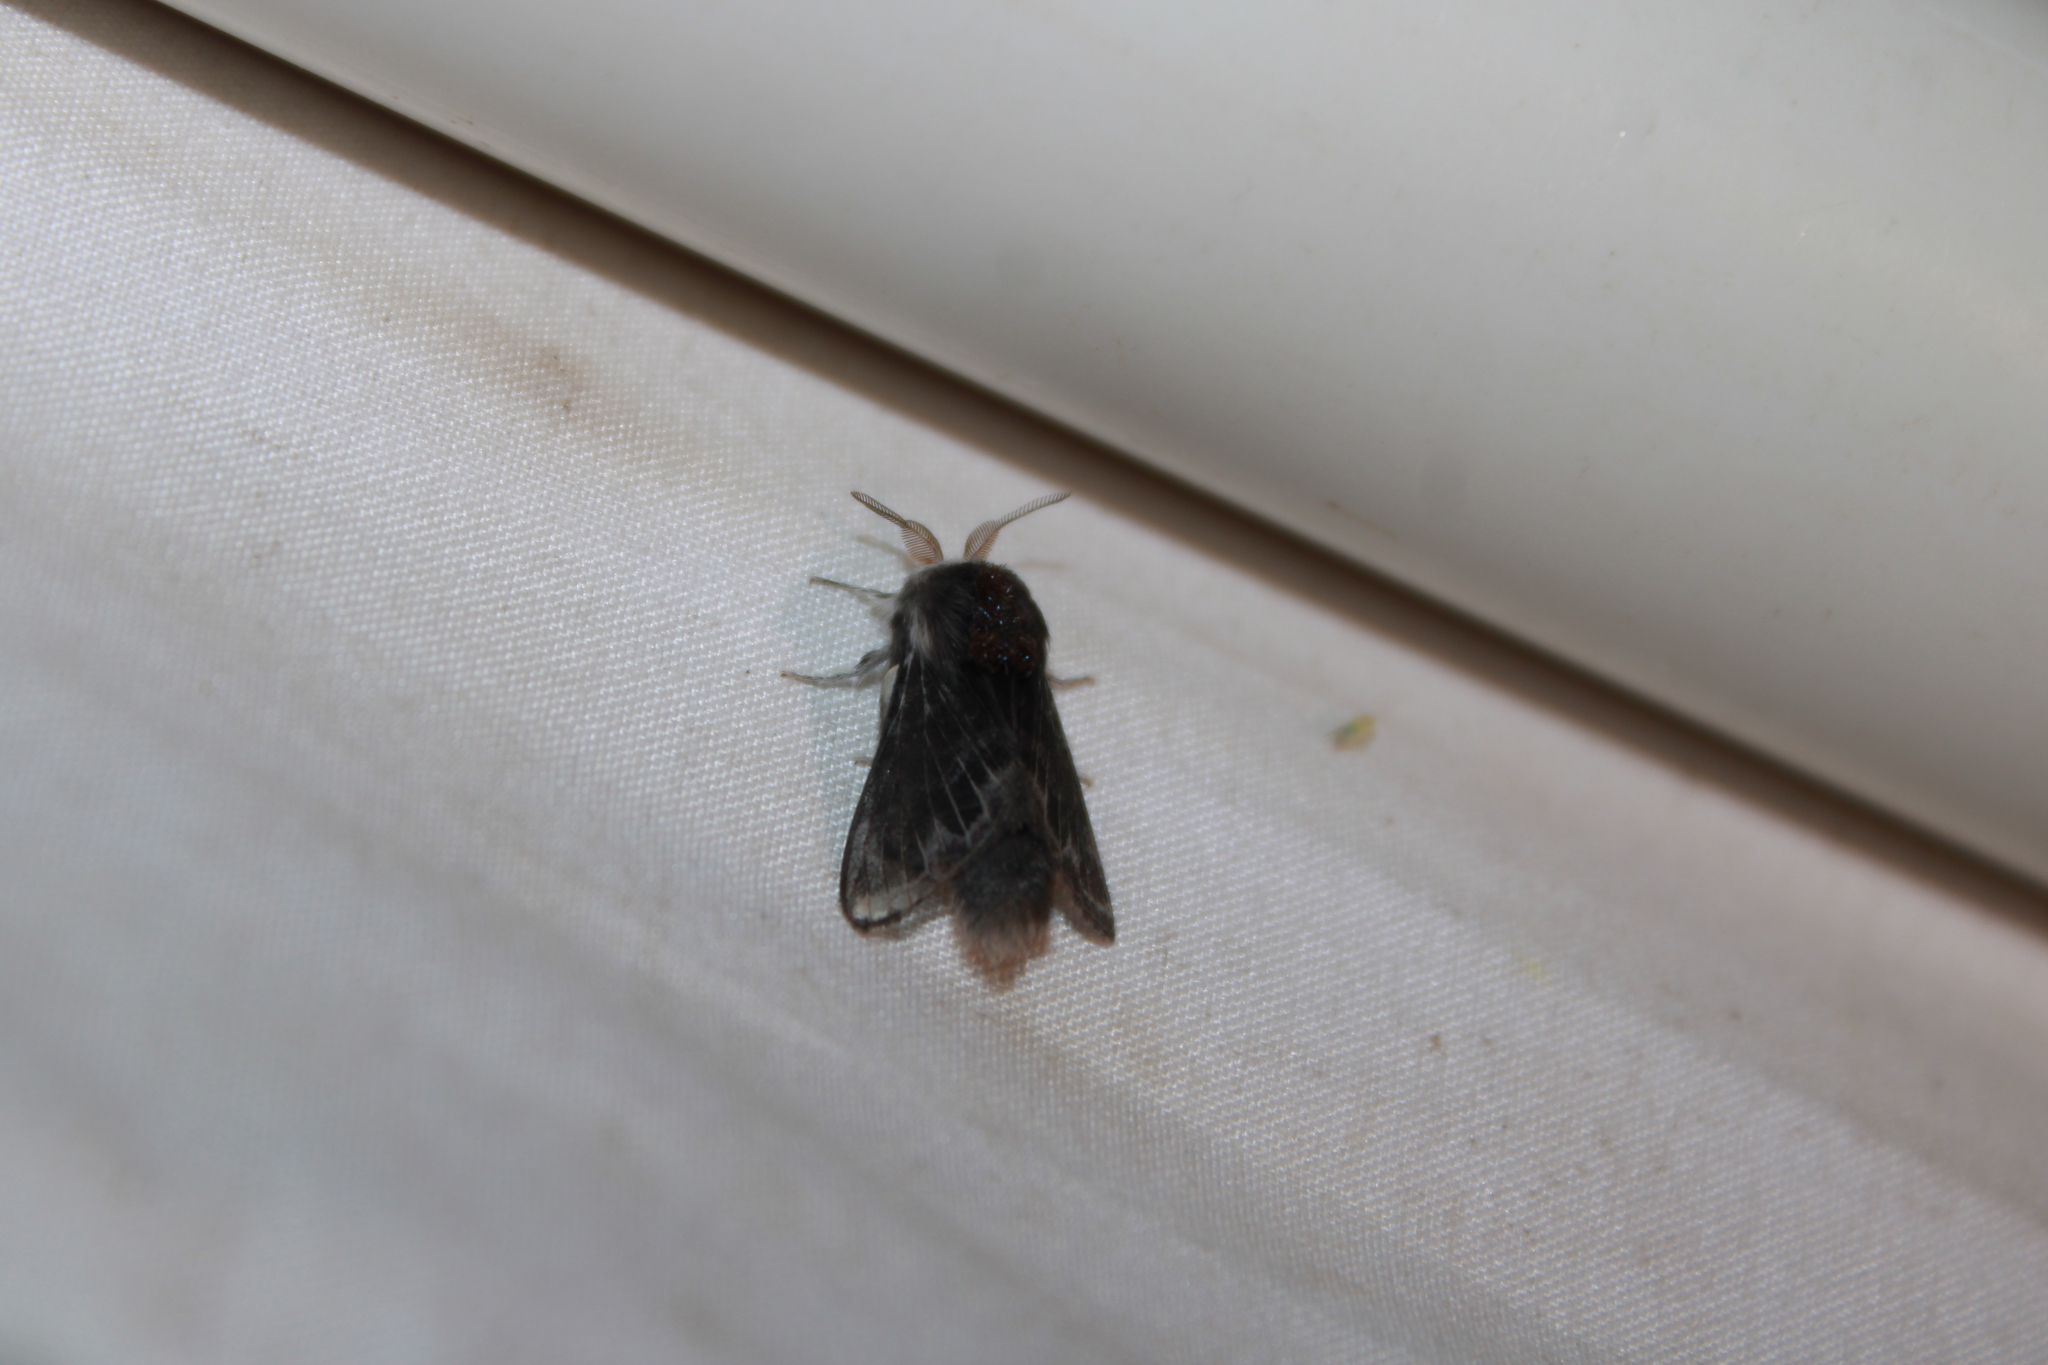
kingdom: Animalia
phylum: Arthropoda
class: Insecta
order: Lepidoptera
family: Lasiocampidae
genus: Tolype
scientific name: Tolype laricis
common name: Larch tolype moth
